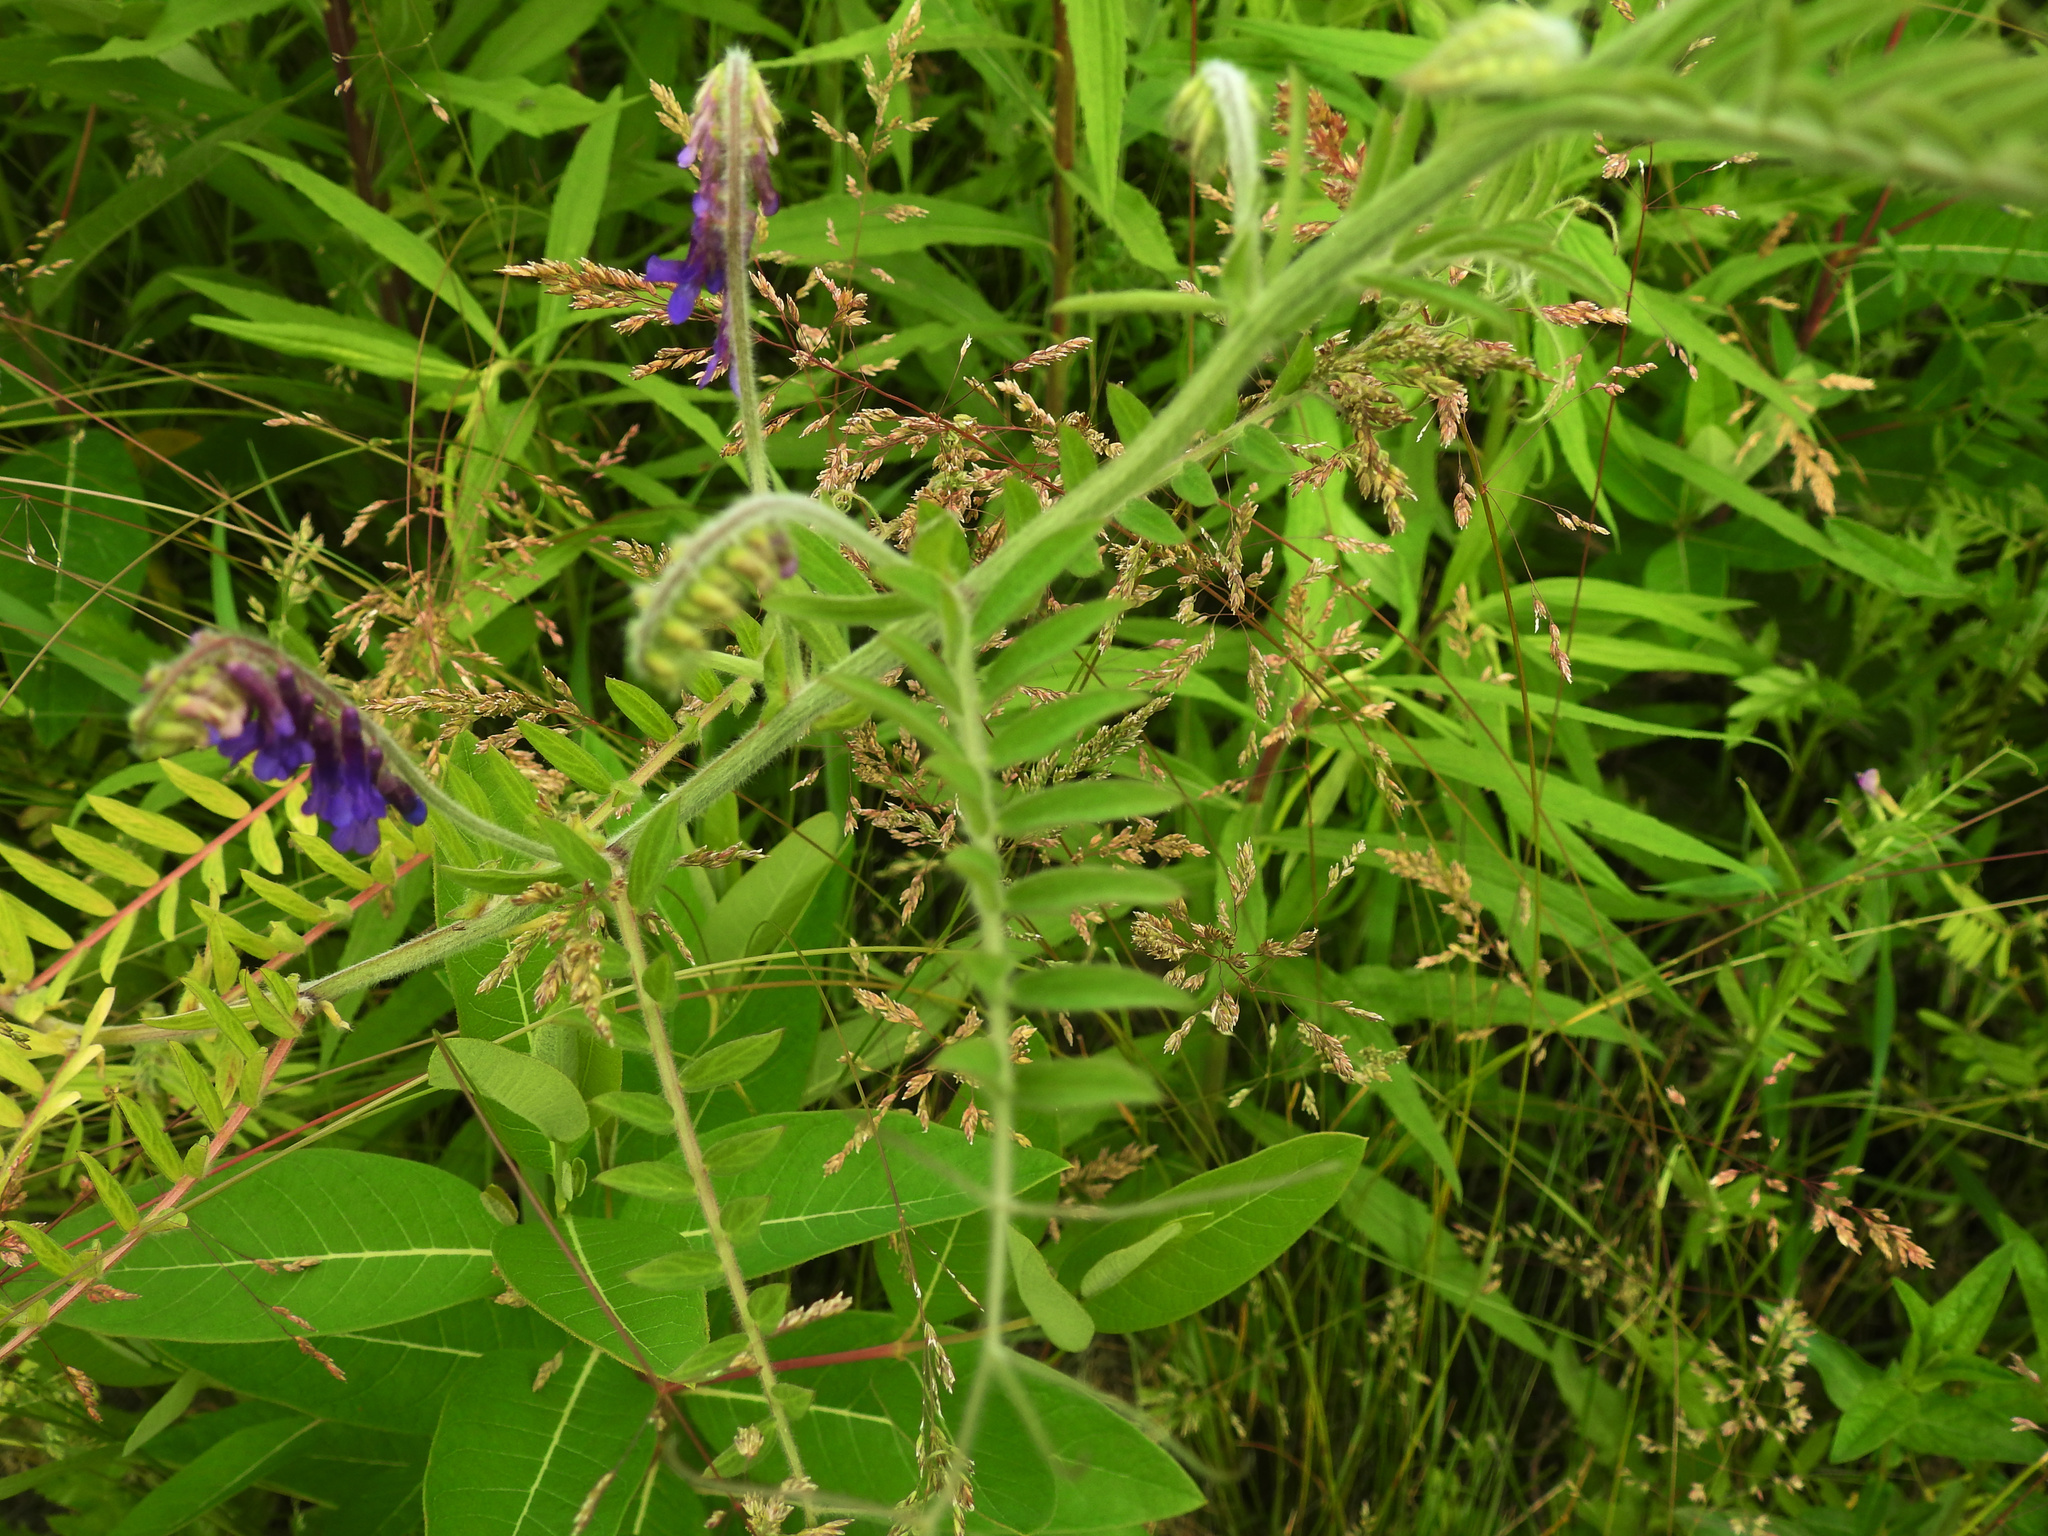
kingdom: Plantae
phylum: Tracheophyta
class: Magnoliopsida
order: Fabales
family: Fabaceae
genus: Vicia
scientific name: Vicia villosa
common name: Fodder vetch
